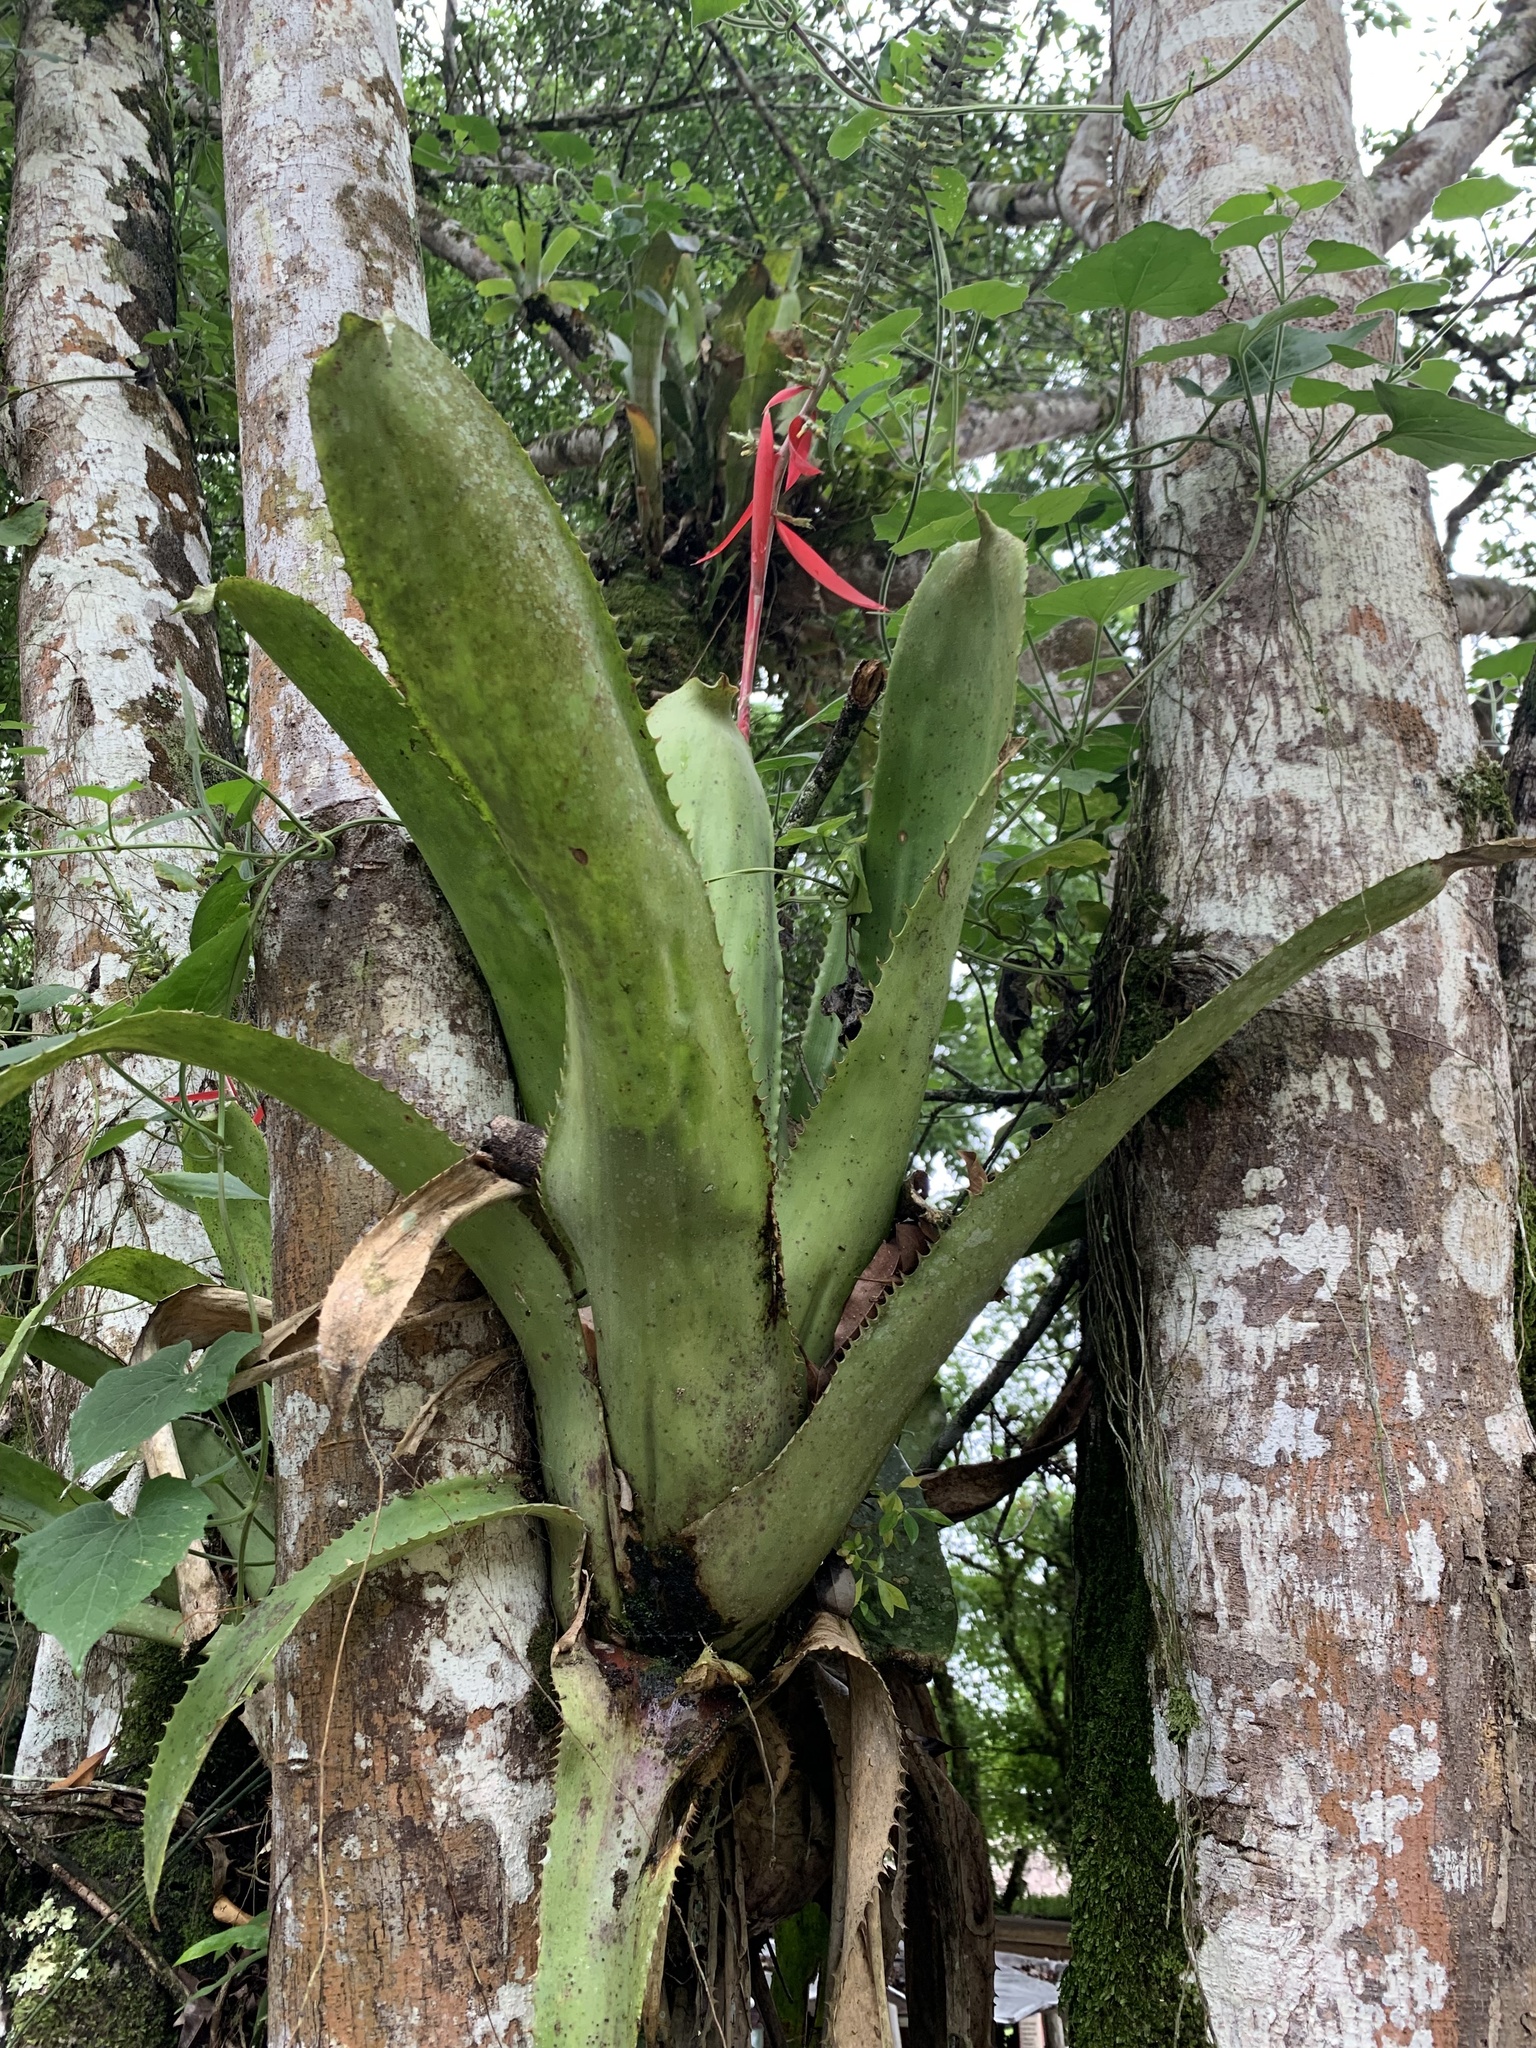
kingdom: Plantae
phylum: Tracheophyta
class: Liliopsida
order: Poales
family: Bromeliaceae
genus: Aechmea
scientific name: Aechmea bracteata
